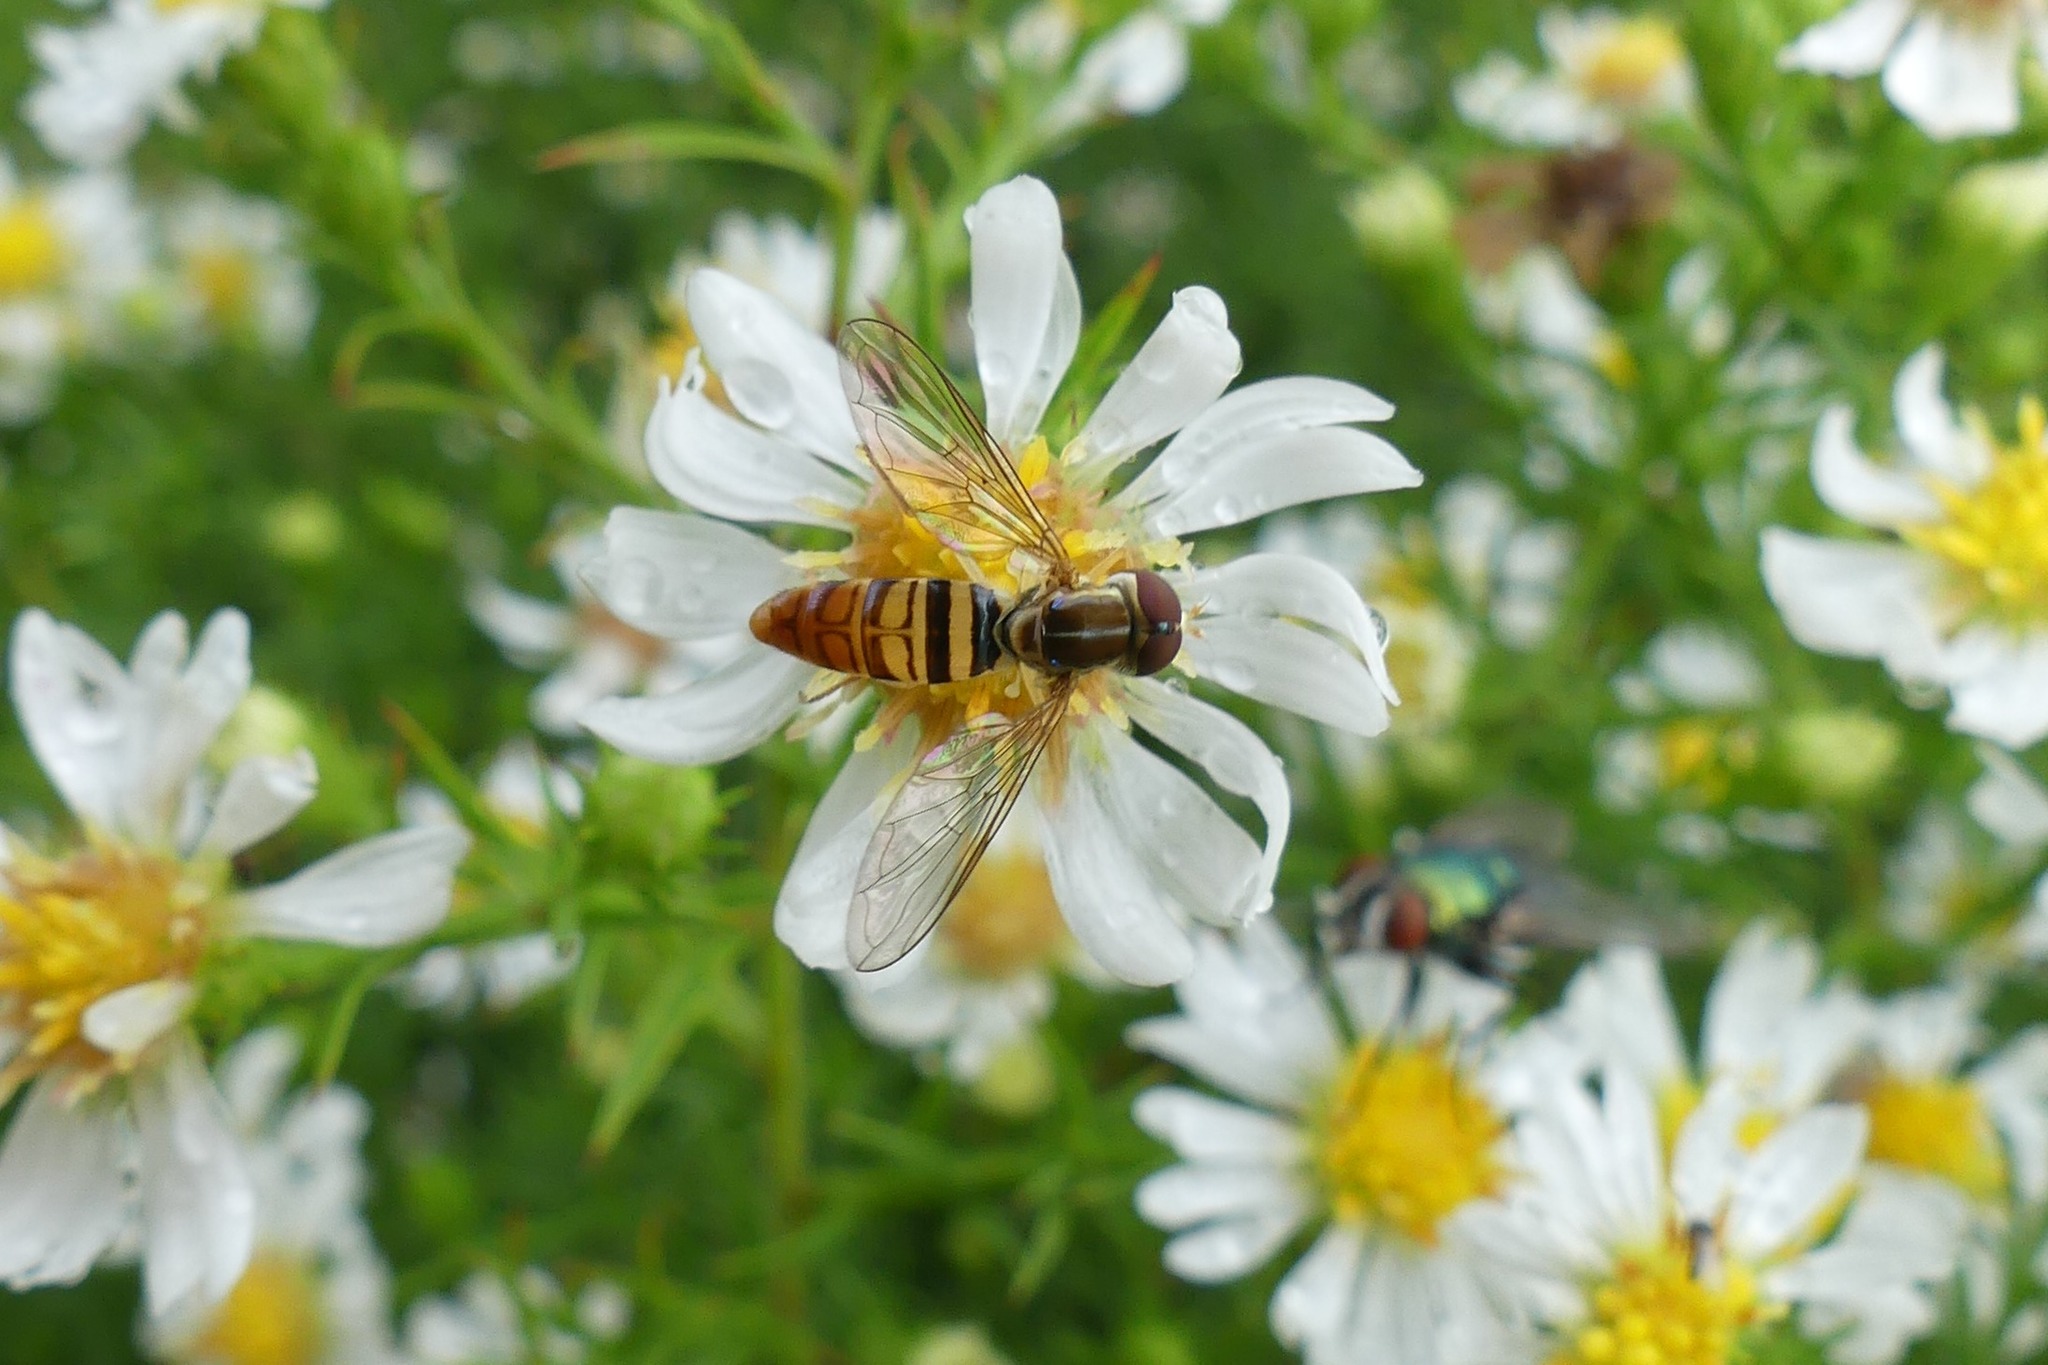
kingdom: Animalia
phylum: Arthropoda
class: Insecta
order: Diptera
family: Syrphidae
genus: Toxomerus
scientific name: Toxomerus politus
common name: Maize calligrapher
